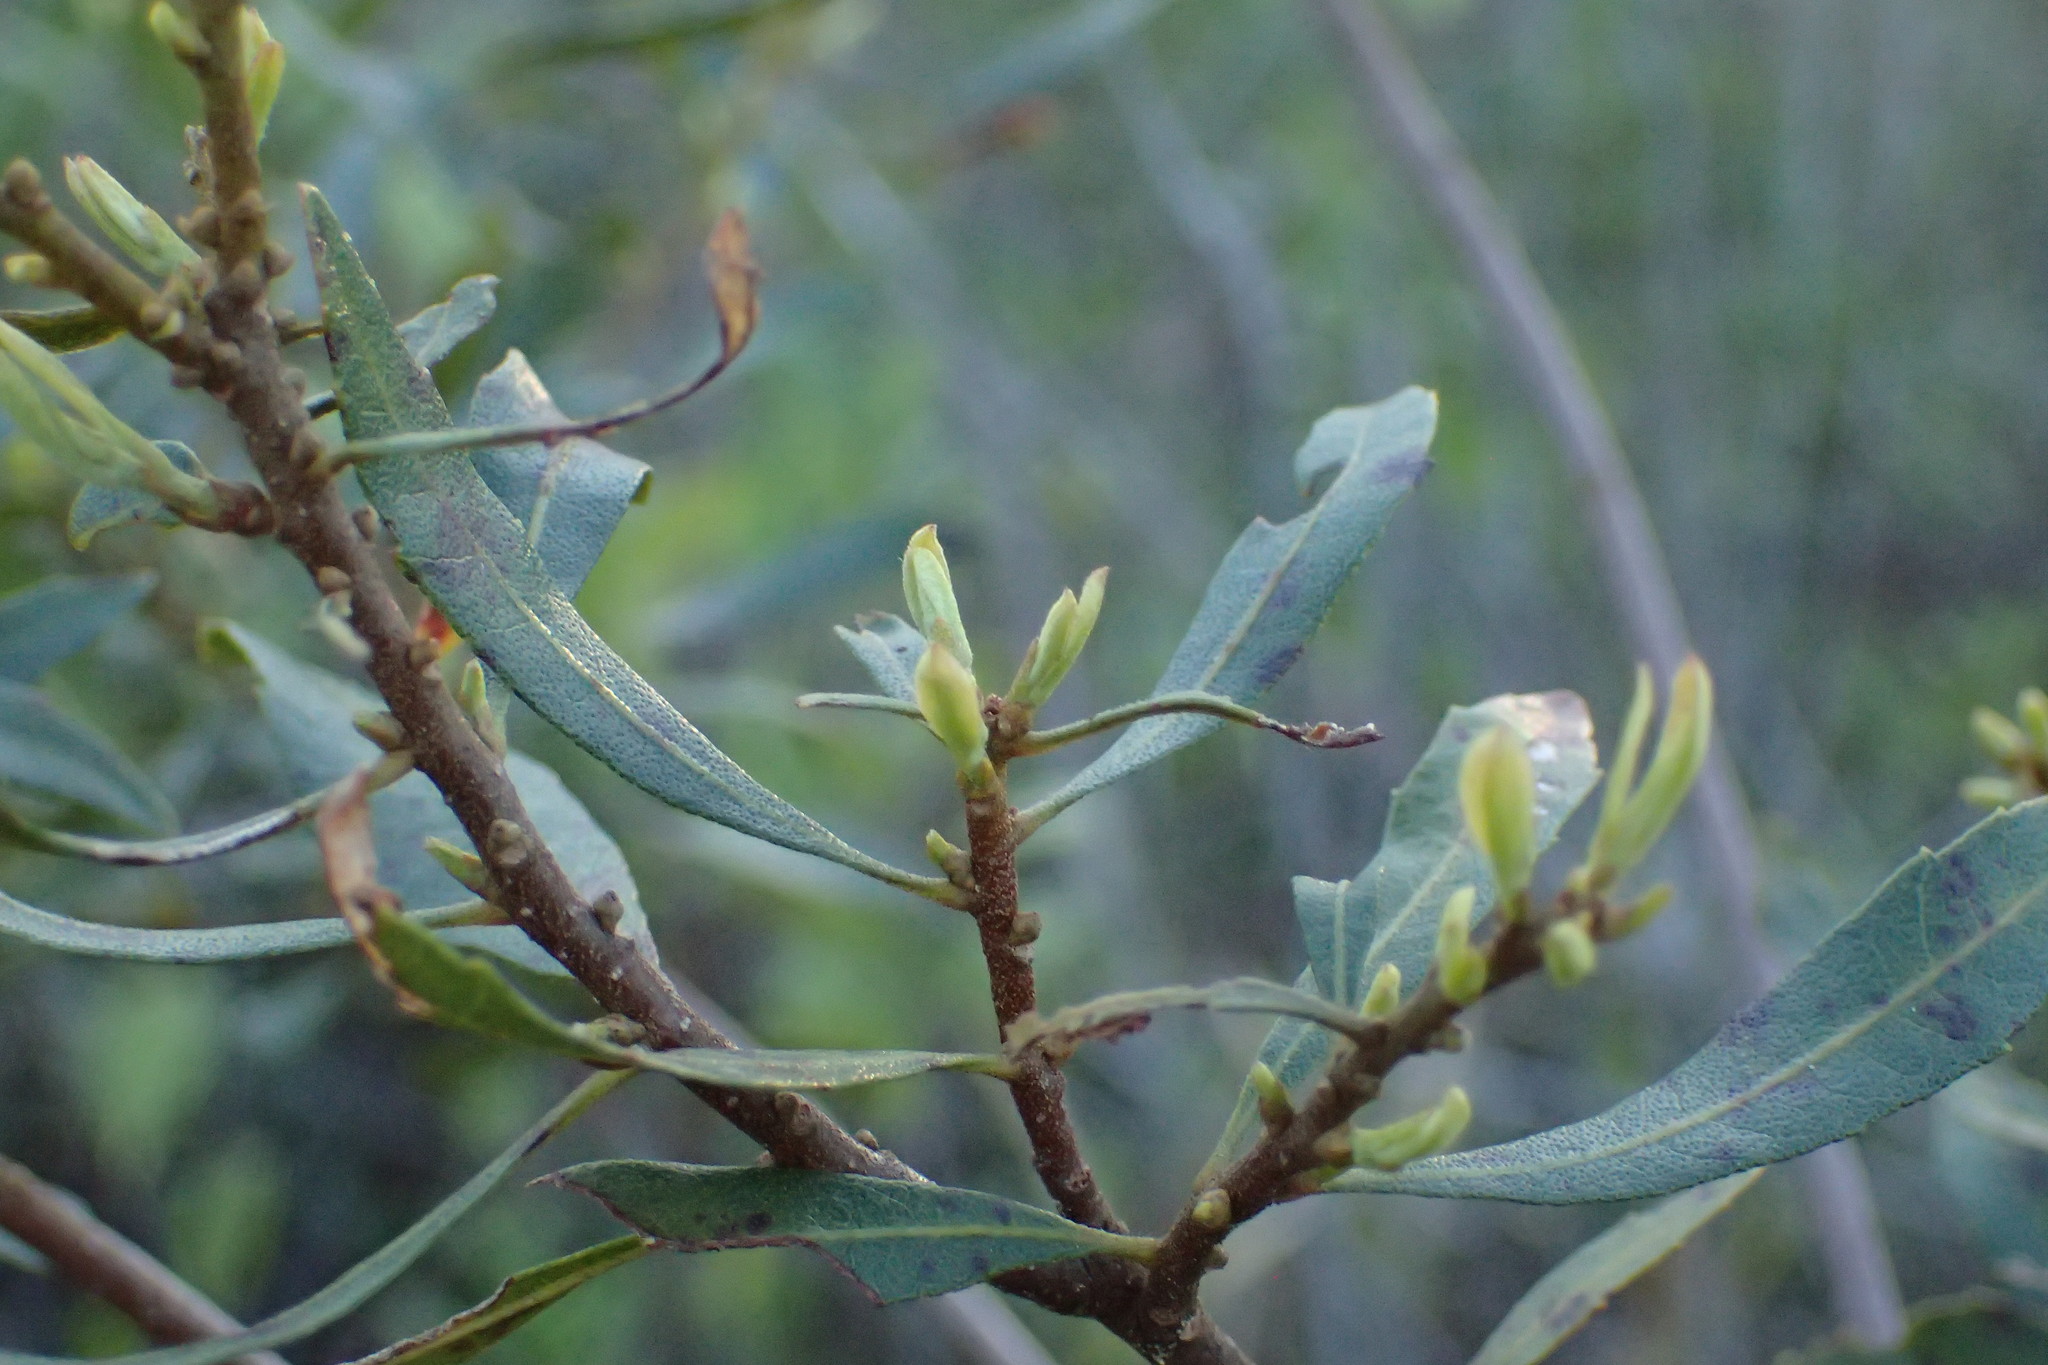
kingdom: Plantae
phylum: Tracheophyta
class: Magnoliopsida
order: Fagales
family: Myricaceae
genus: Morella
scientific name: Morella cerifera
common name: Wax myrtle
